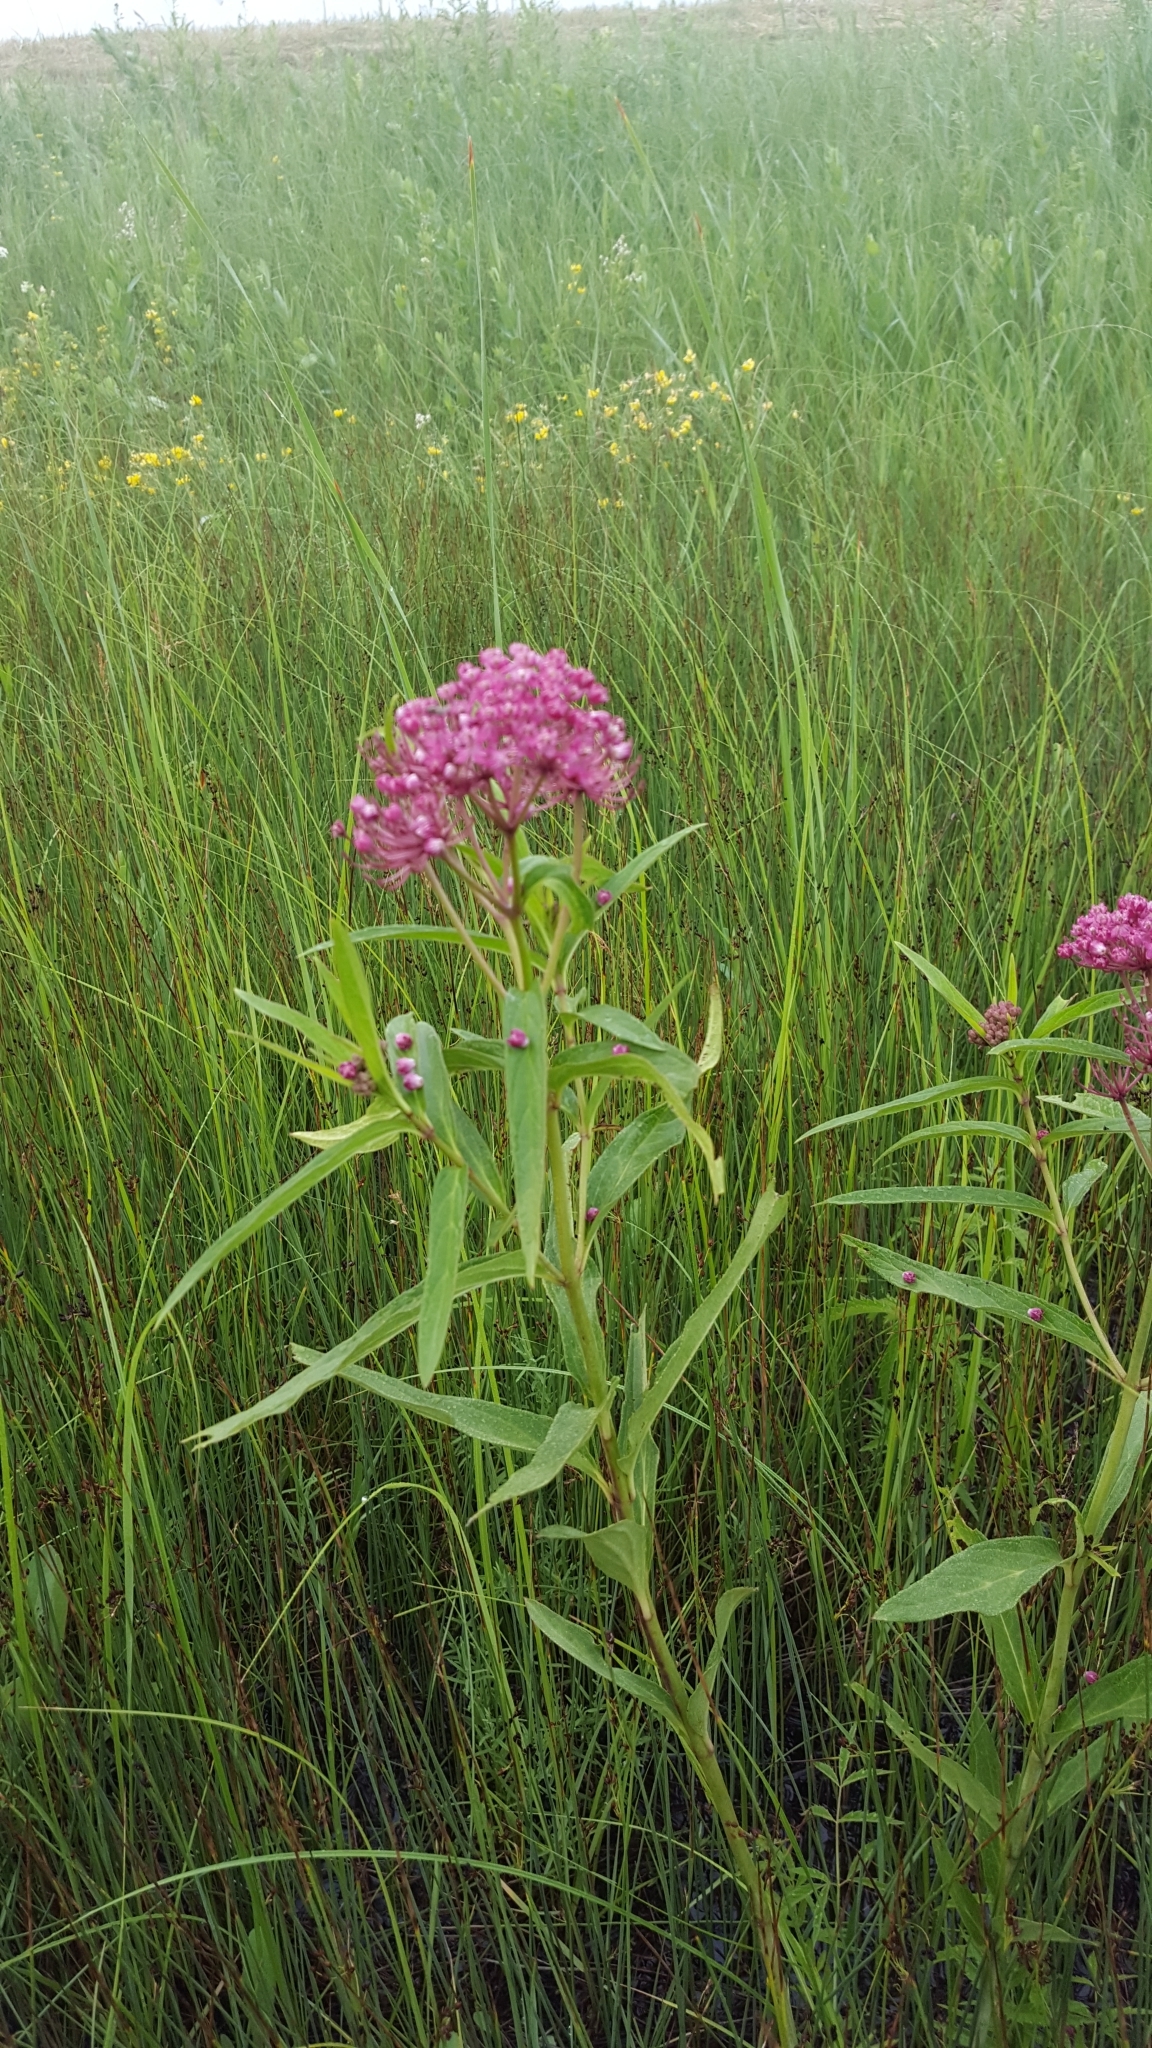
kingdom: Plantae
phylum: Tracheophyta
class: Magnoliopsida
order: Gentianales
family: Apocynaceae
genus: Asclepias
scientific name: Asclepias incarnata
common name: Swamp milkweed
